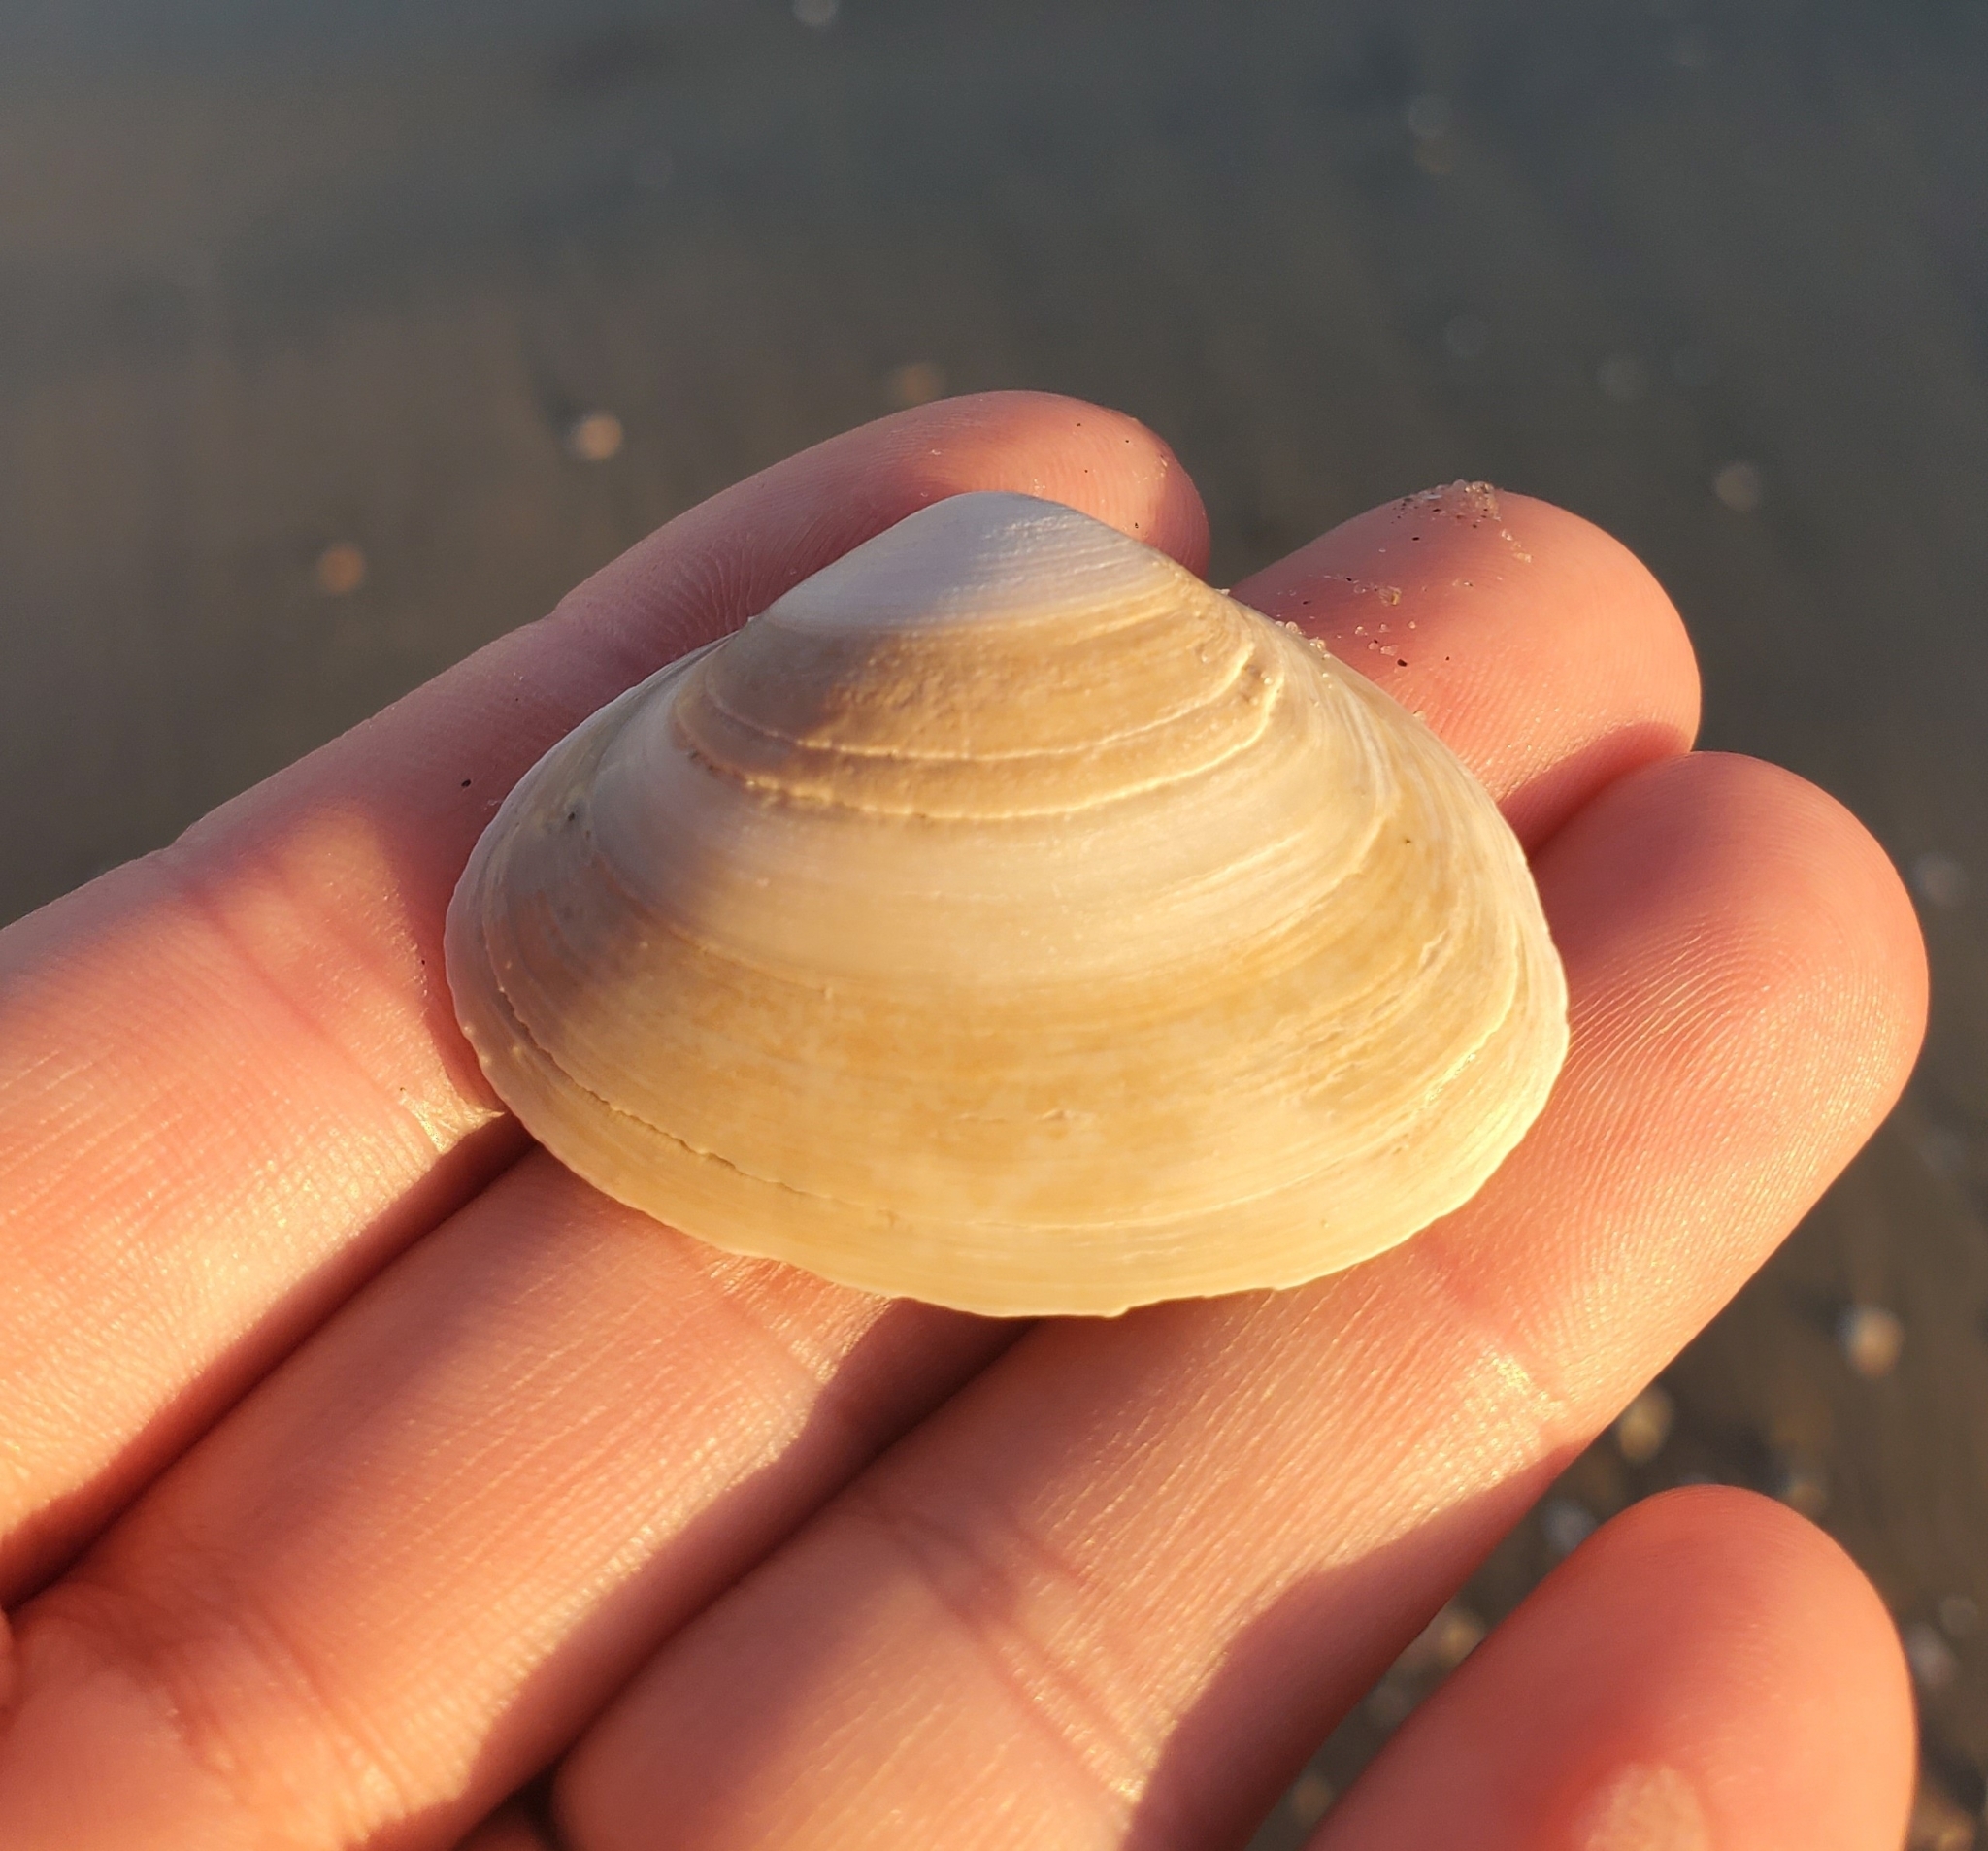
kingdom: Animalia
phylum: Mollusca
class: Bivalvia
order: Venerida
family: Mactridae
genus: Spisula
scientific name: Spisula solidissima
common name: Atlantic surf clam
